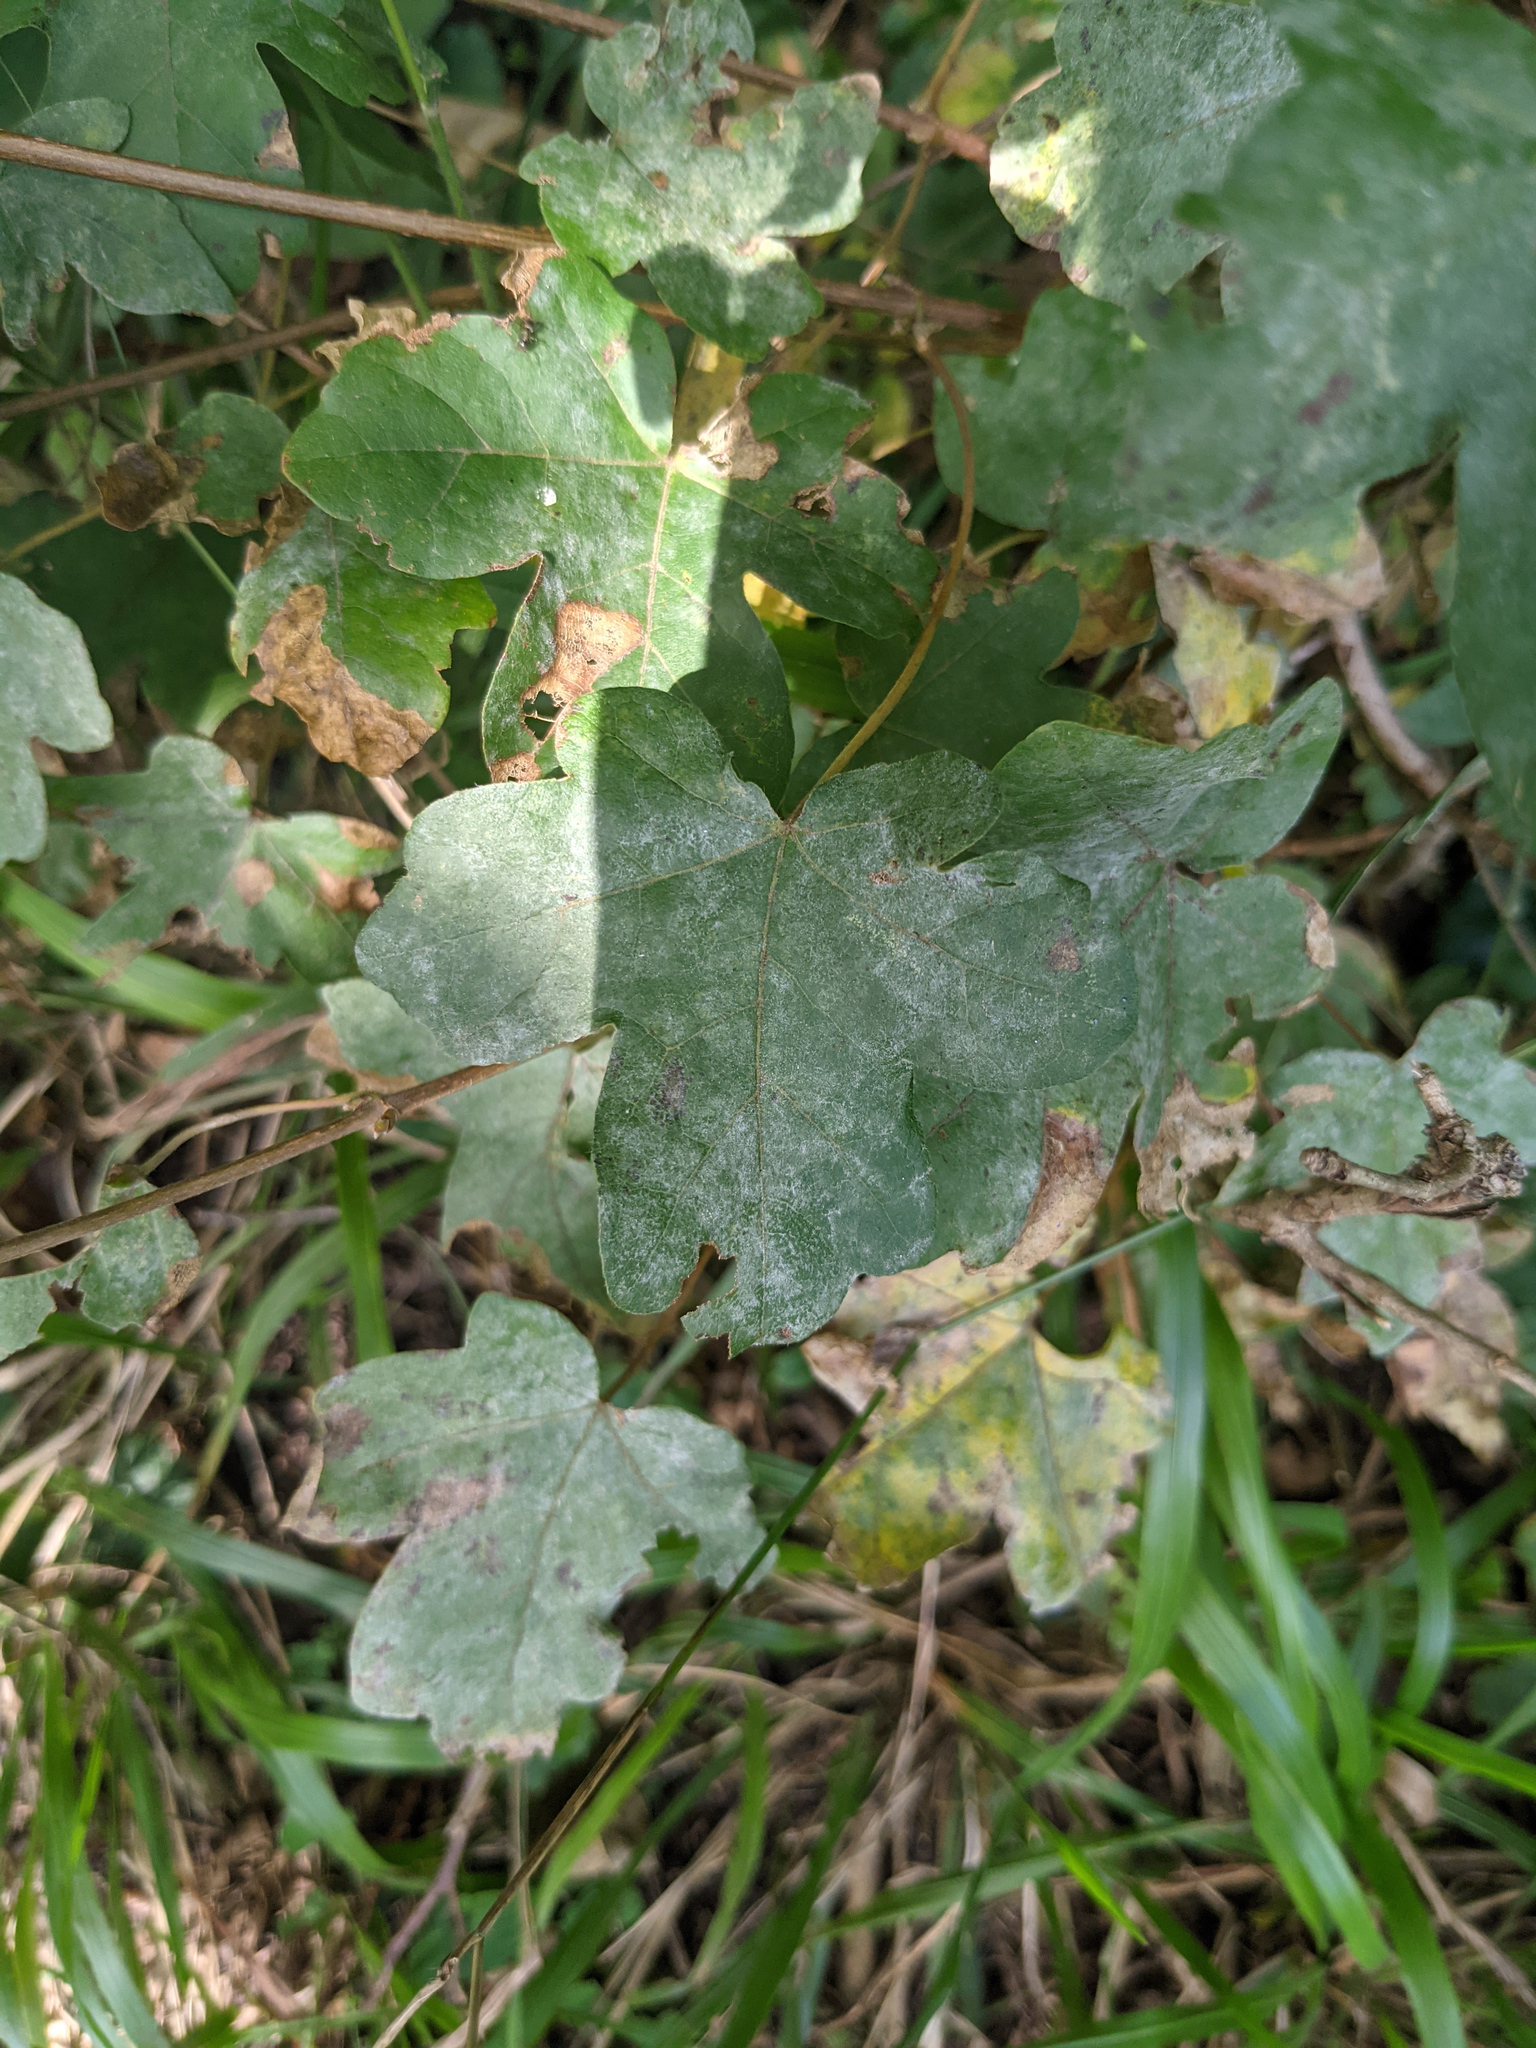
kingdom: Plantae
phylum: Tracheophyta
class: Magnoliopsida
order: Sapindales
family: Sapindaceae
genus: Acer
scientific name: Acer campestre
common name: Field maple
